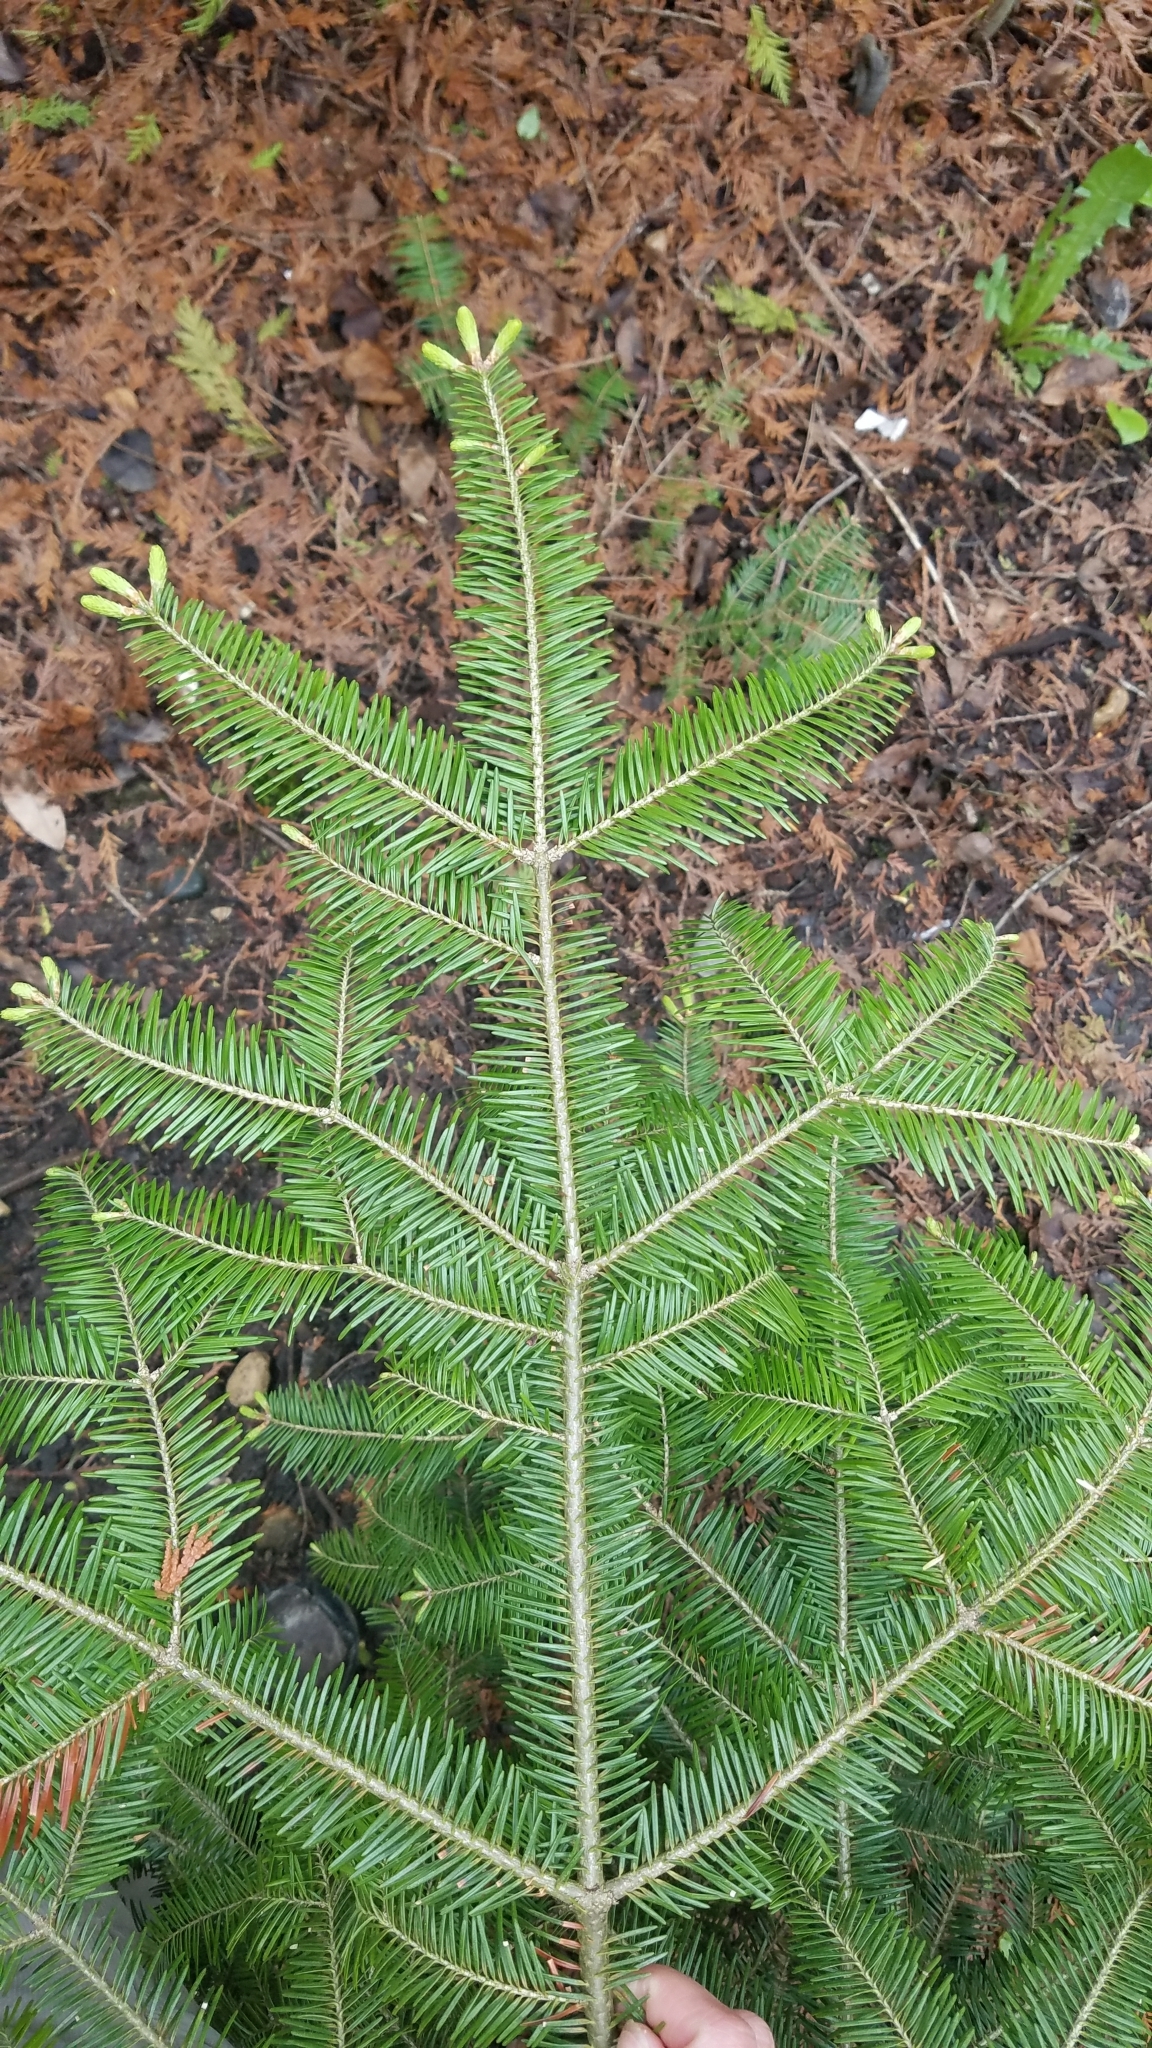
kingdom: Plantae
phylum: Tracheophyta
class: Pinopsida
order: Pinales
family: Pinaceae
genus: Abies
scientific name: Abies balsamea
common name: Balsam fir
